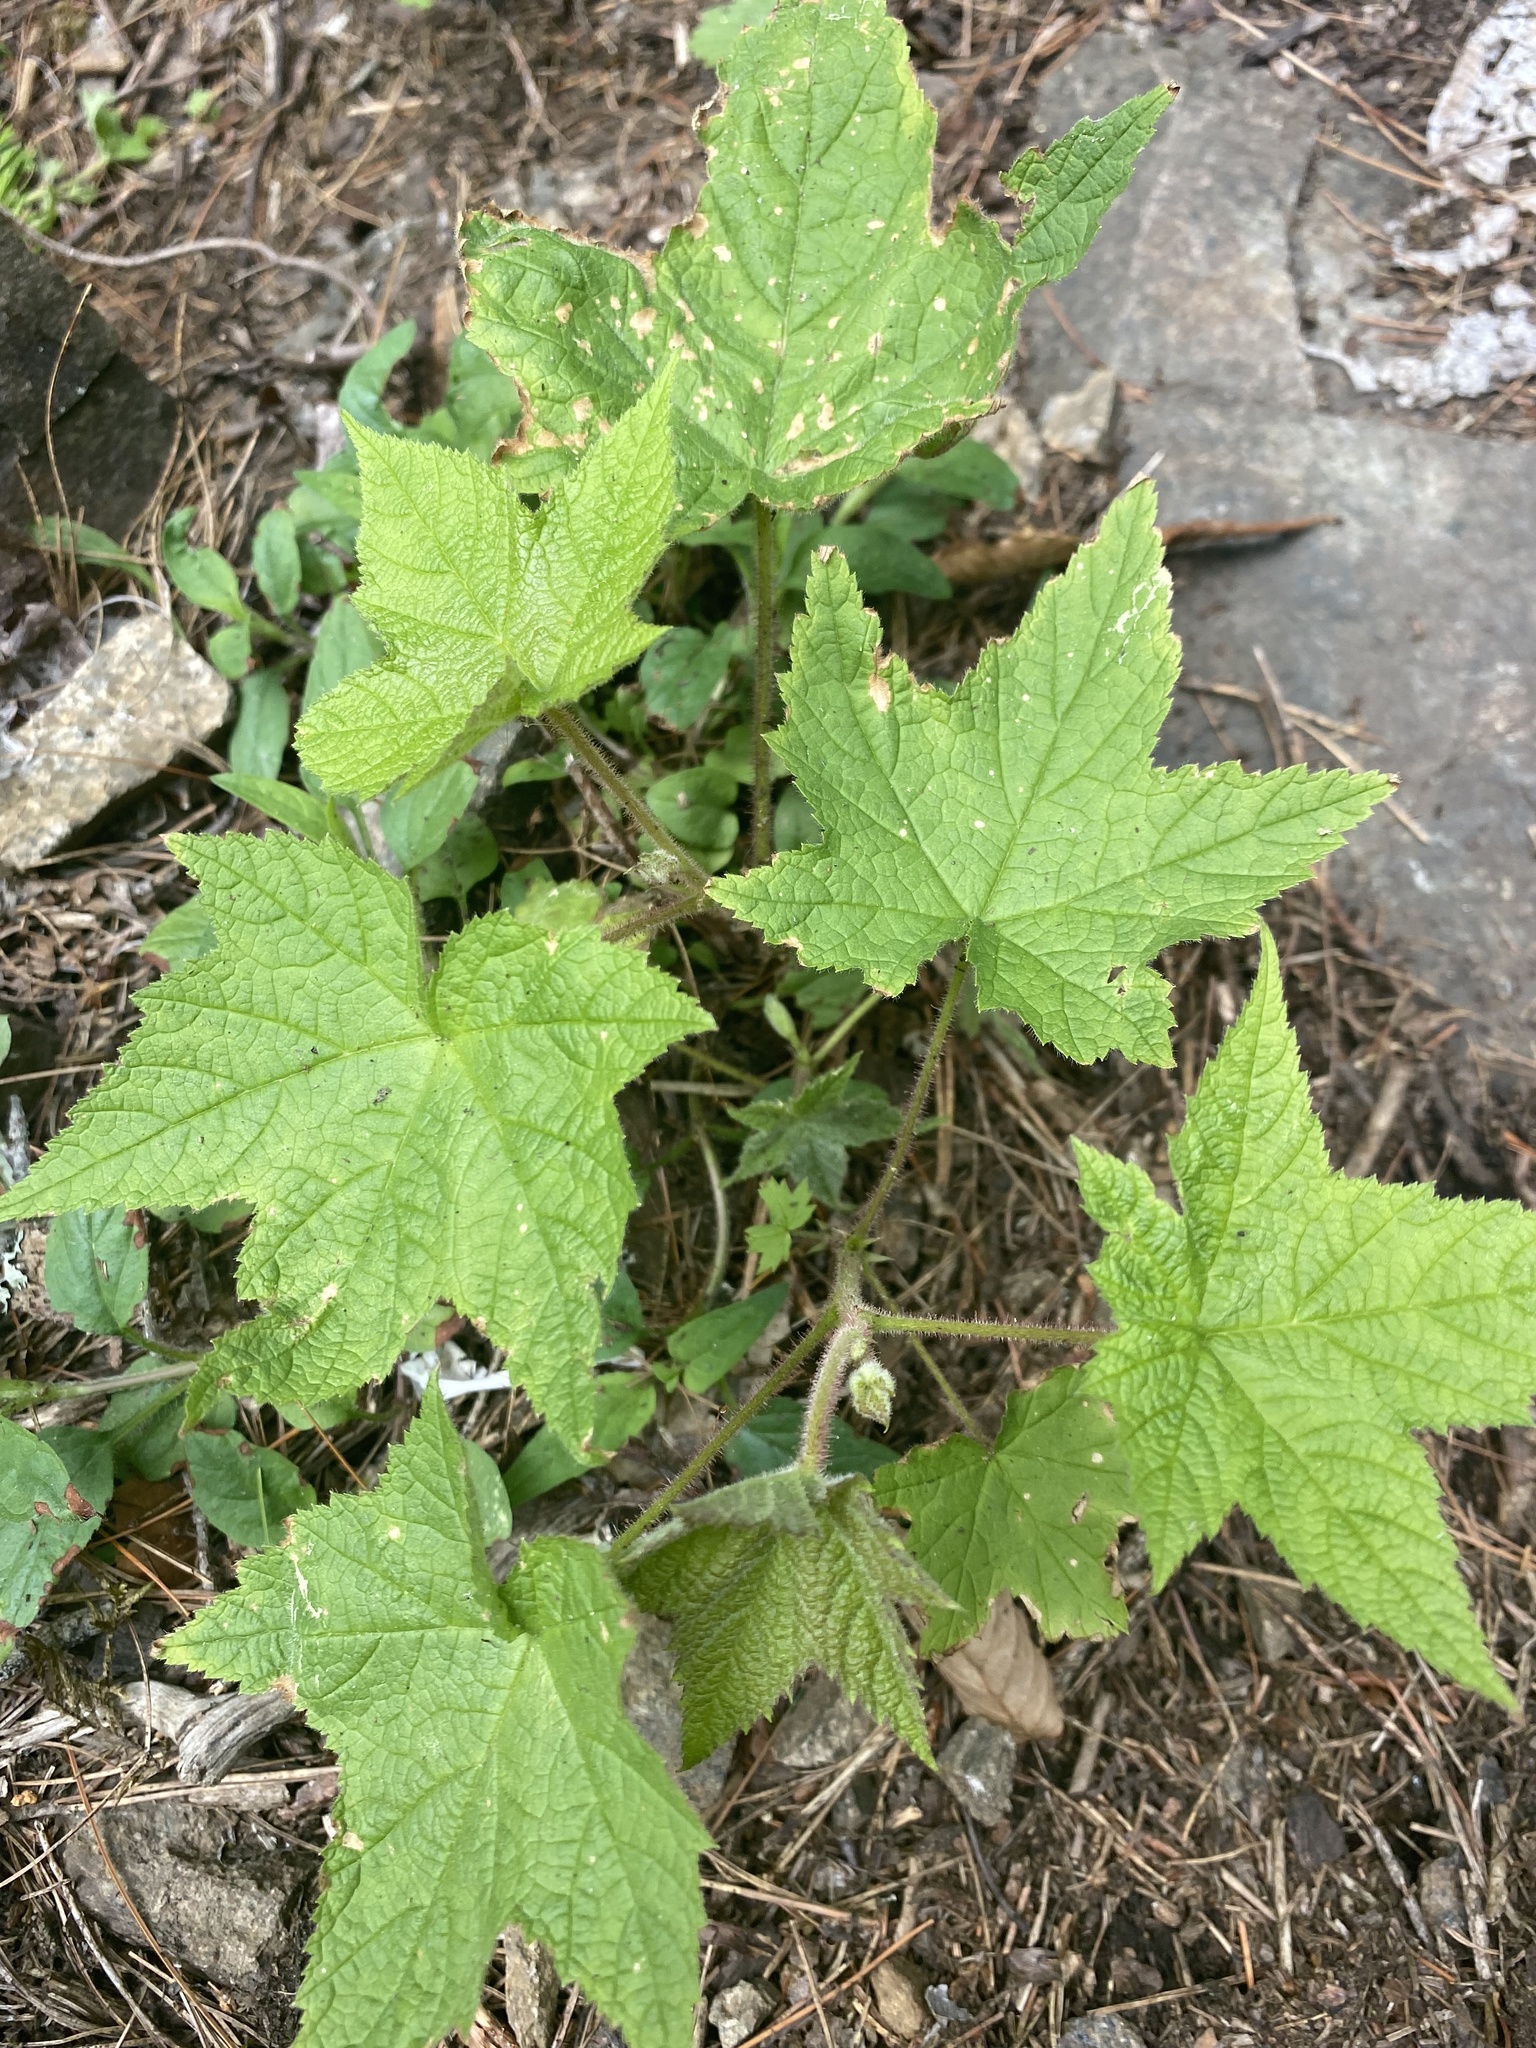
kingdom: Plantae
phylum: Tracheophyta
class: Magnoliopsida
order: Rosales
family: Rosaceae
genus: Rubus
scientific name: Rubus odoratus
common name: Purple-flowered raspberry
